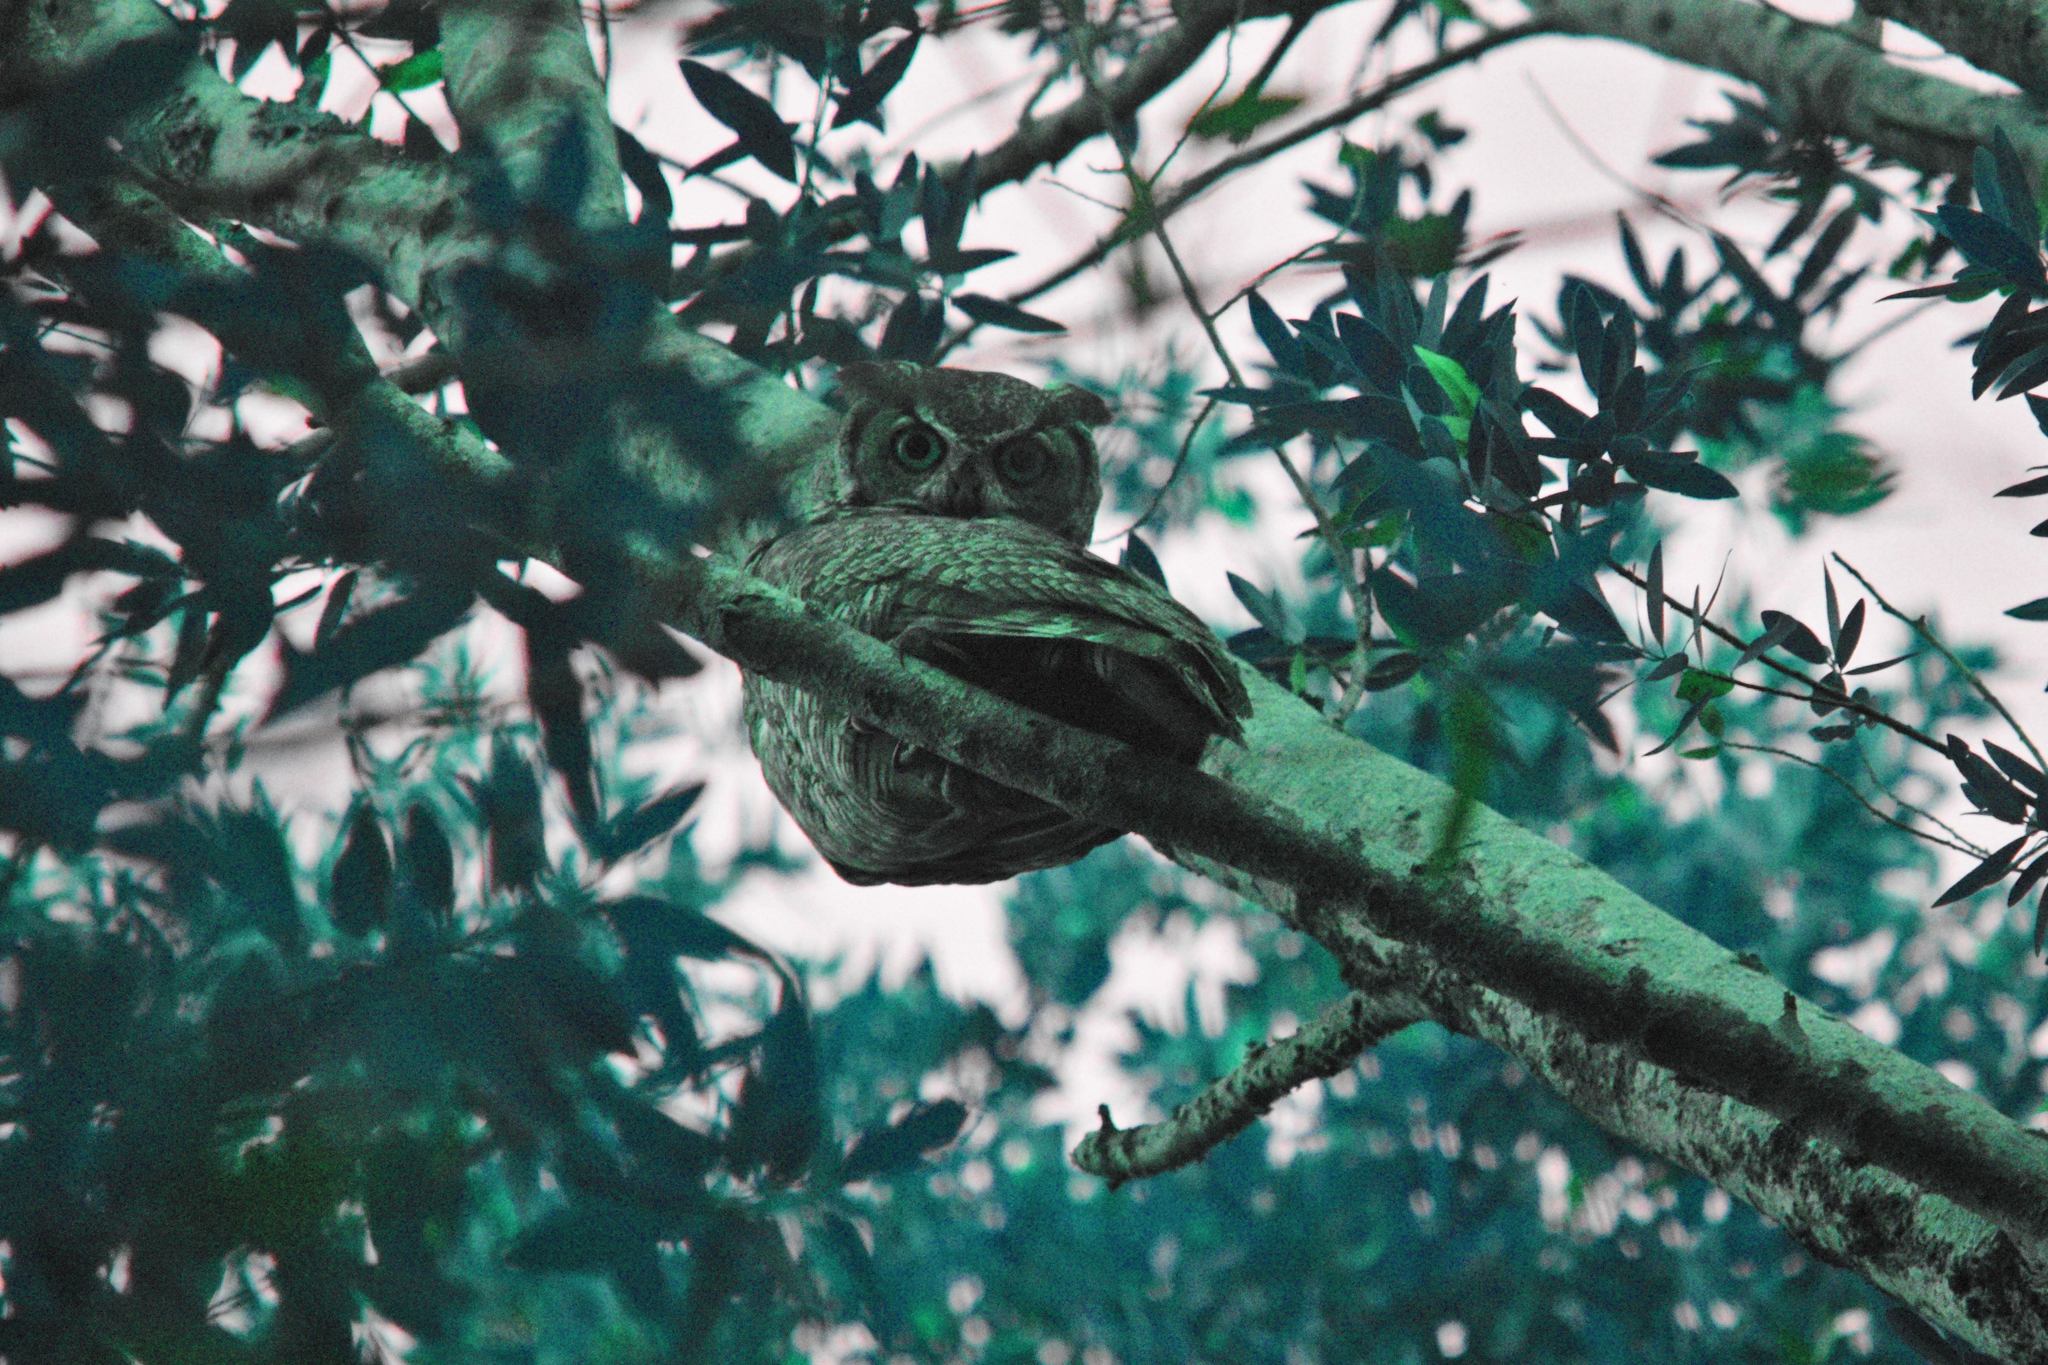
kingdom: Animalia
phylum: Chordata
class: Aves
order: Strigiformes
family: Strigidae
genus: Bubo
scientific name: Bubo virginianus
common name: Great horned owl
